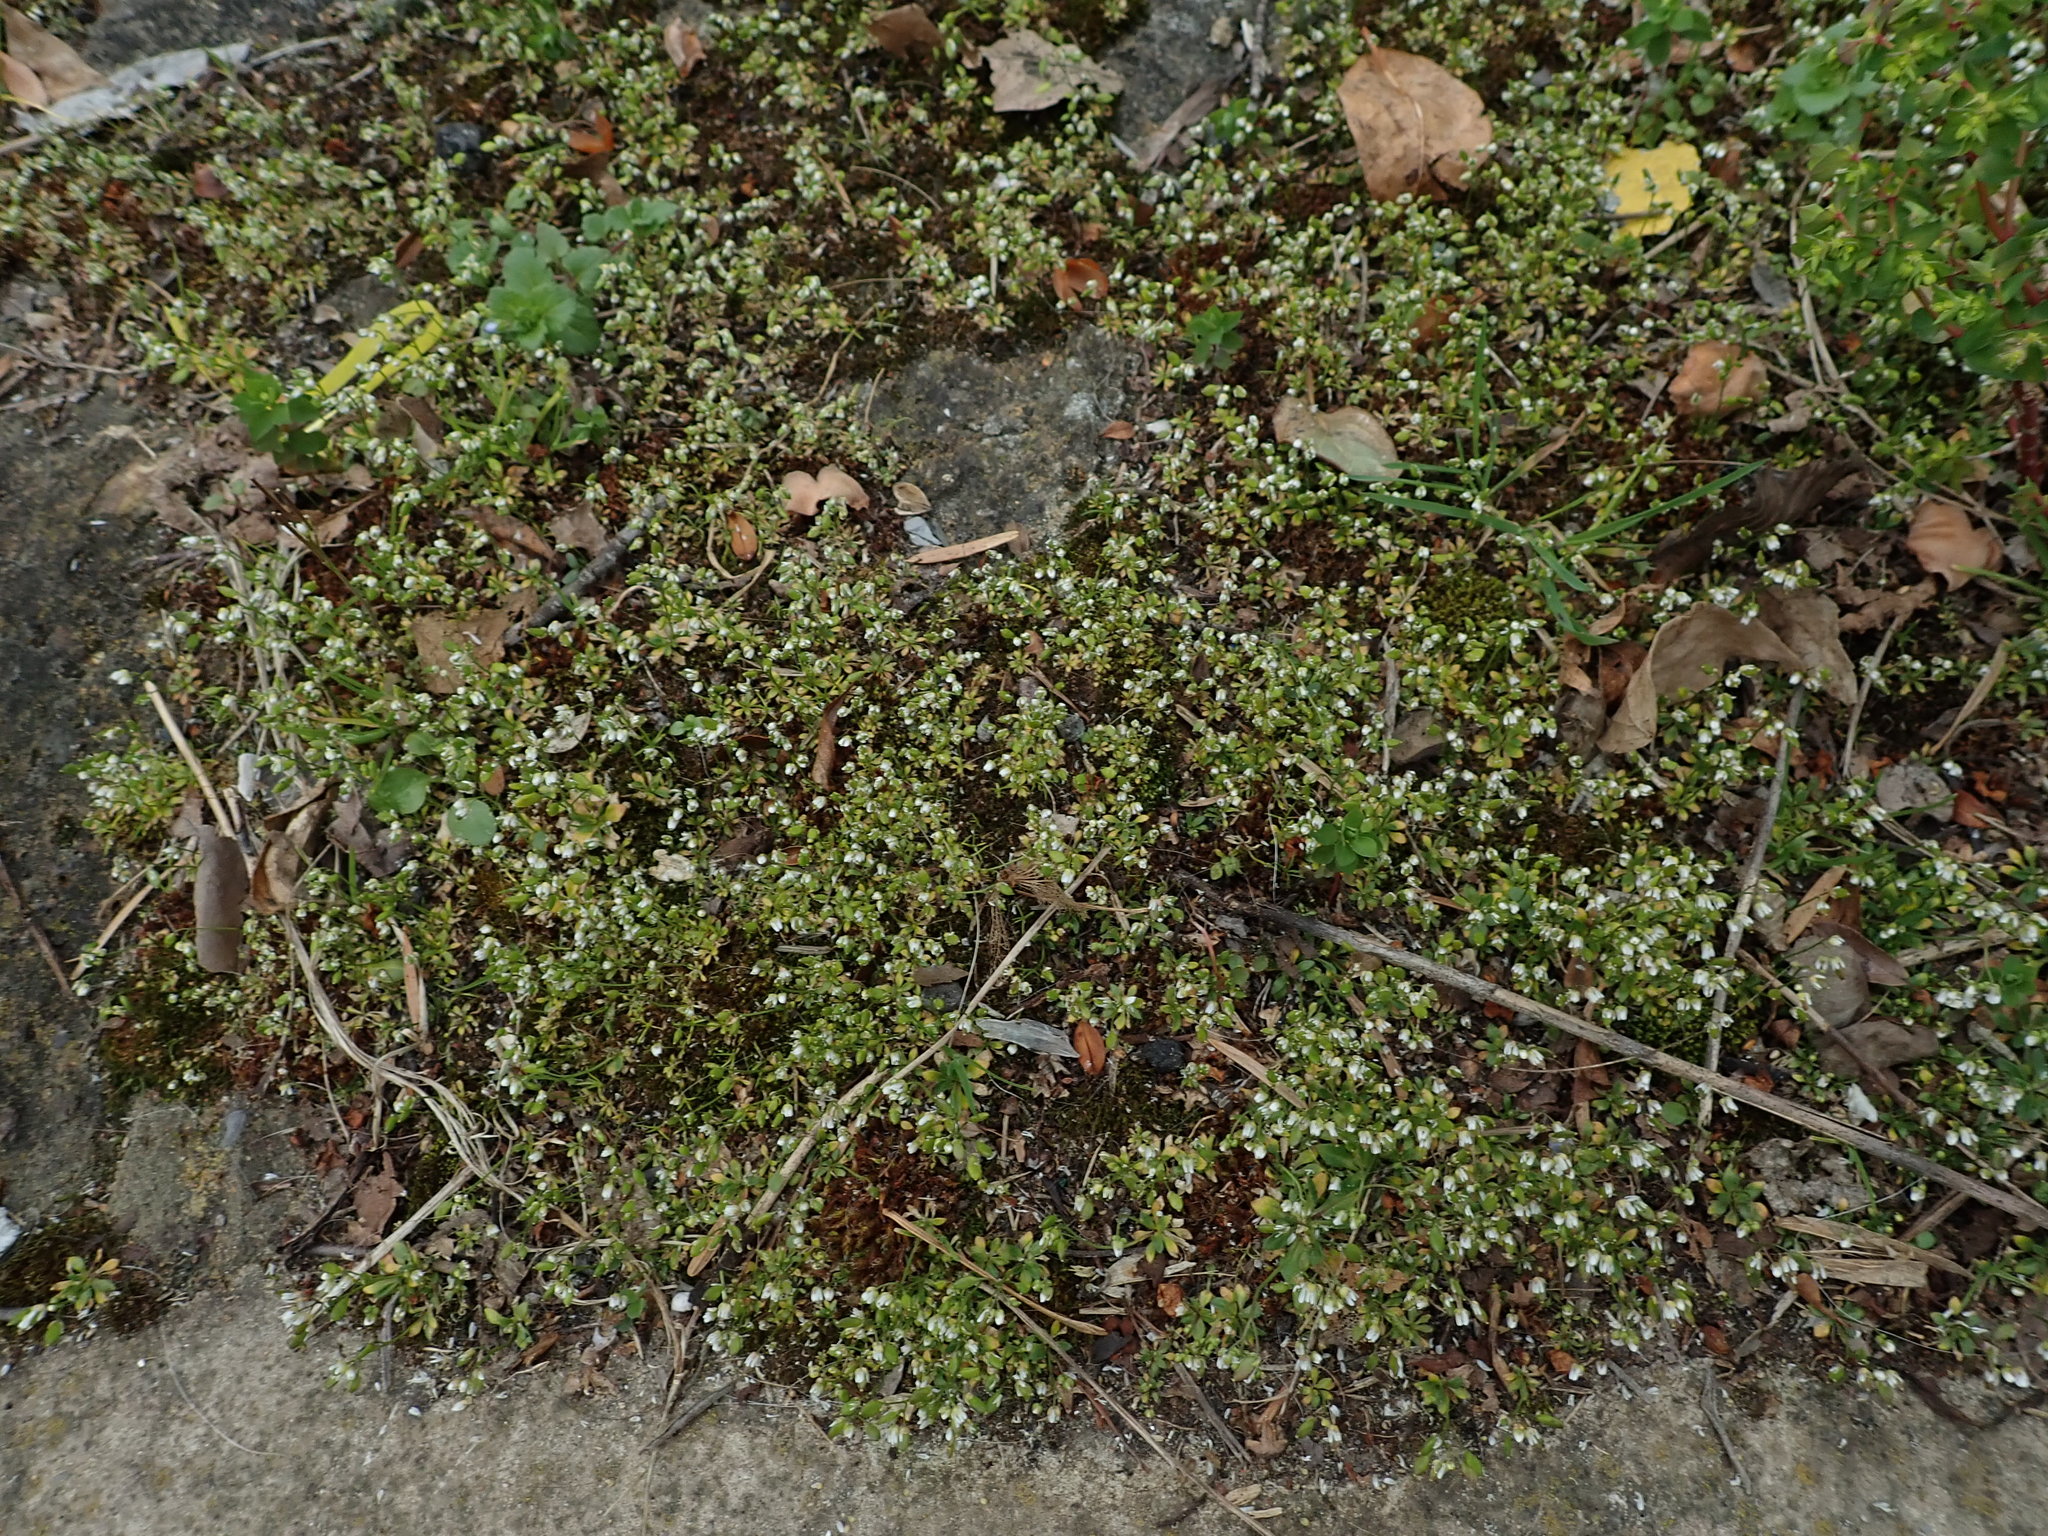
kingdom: Plantae
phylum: Tracheophyta
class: Magnoliopsida
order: Brassicales
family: Brassicaceae
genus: Draba
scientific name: Draba verna
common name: Spring draba
